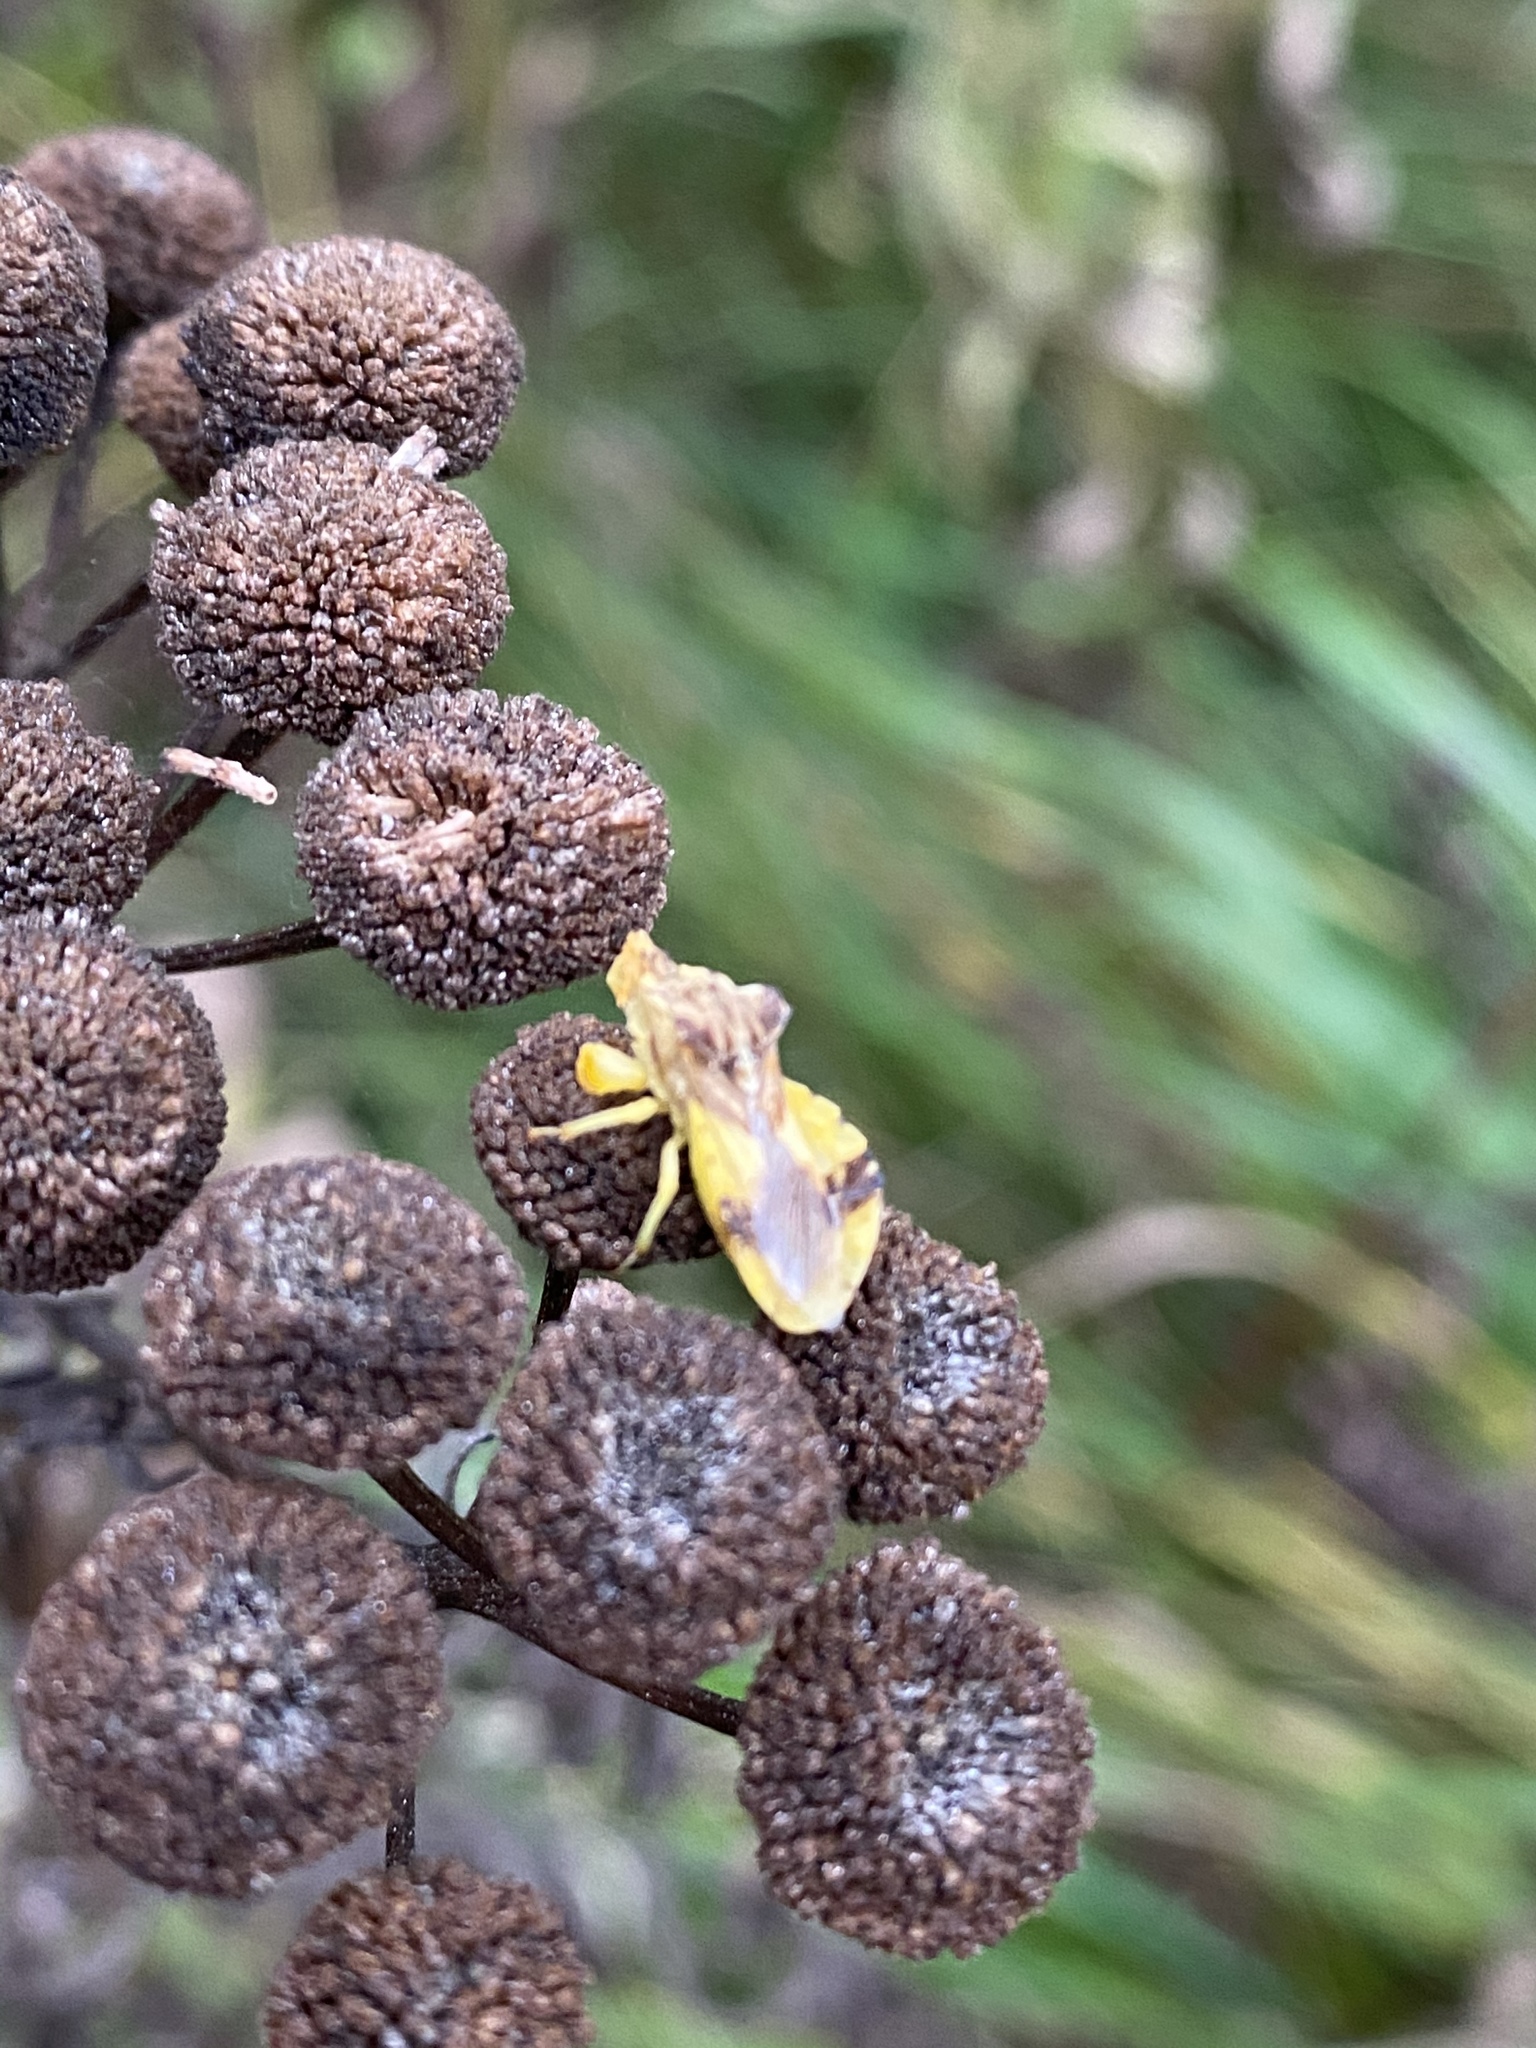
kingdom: Animalia
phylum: Arthropoda
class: Insecta
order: Hemiptera
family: Reduviidae
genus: Phymata
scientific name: Phymata americana
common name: Jagged ambush bug
